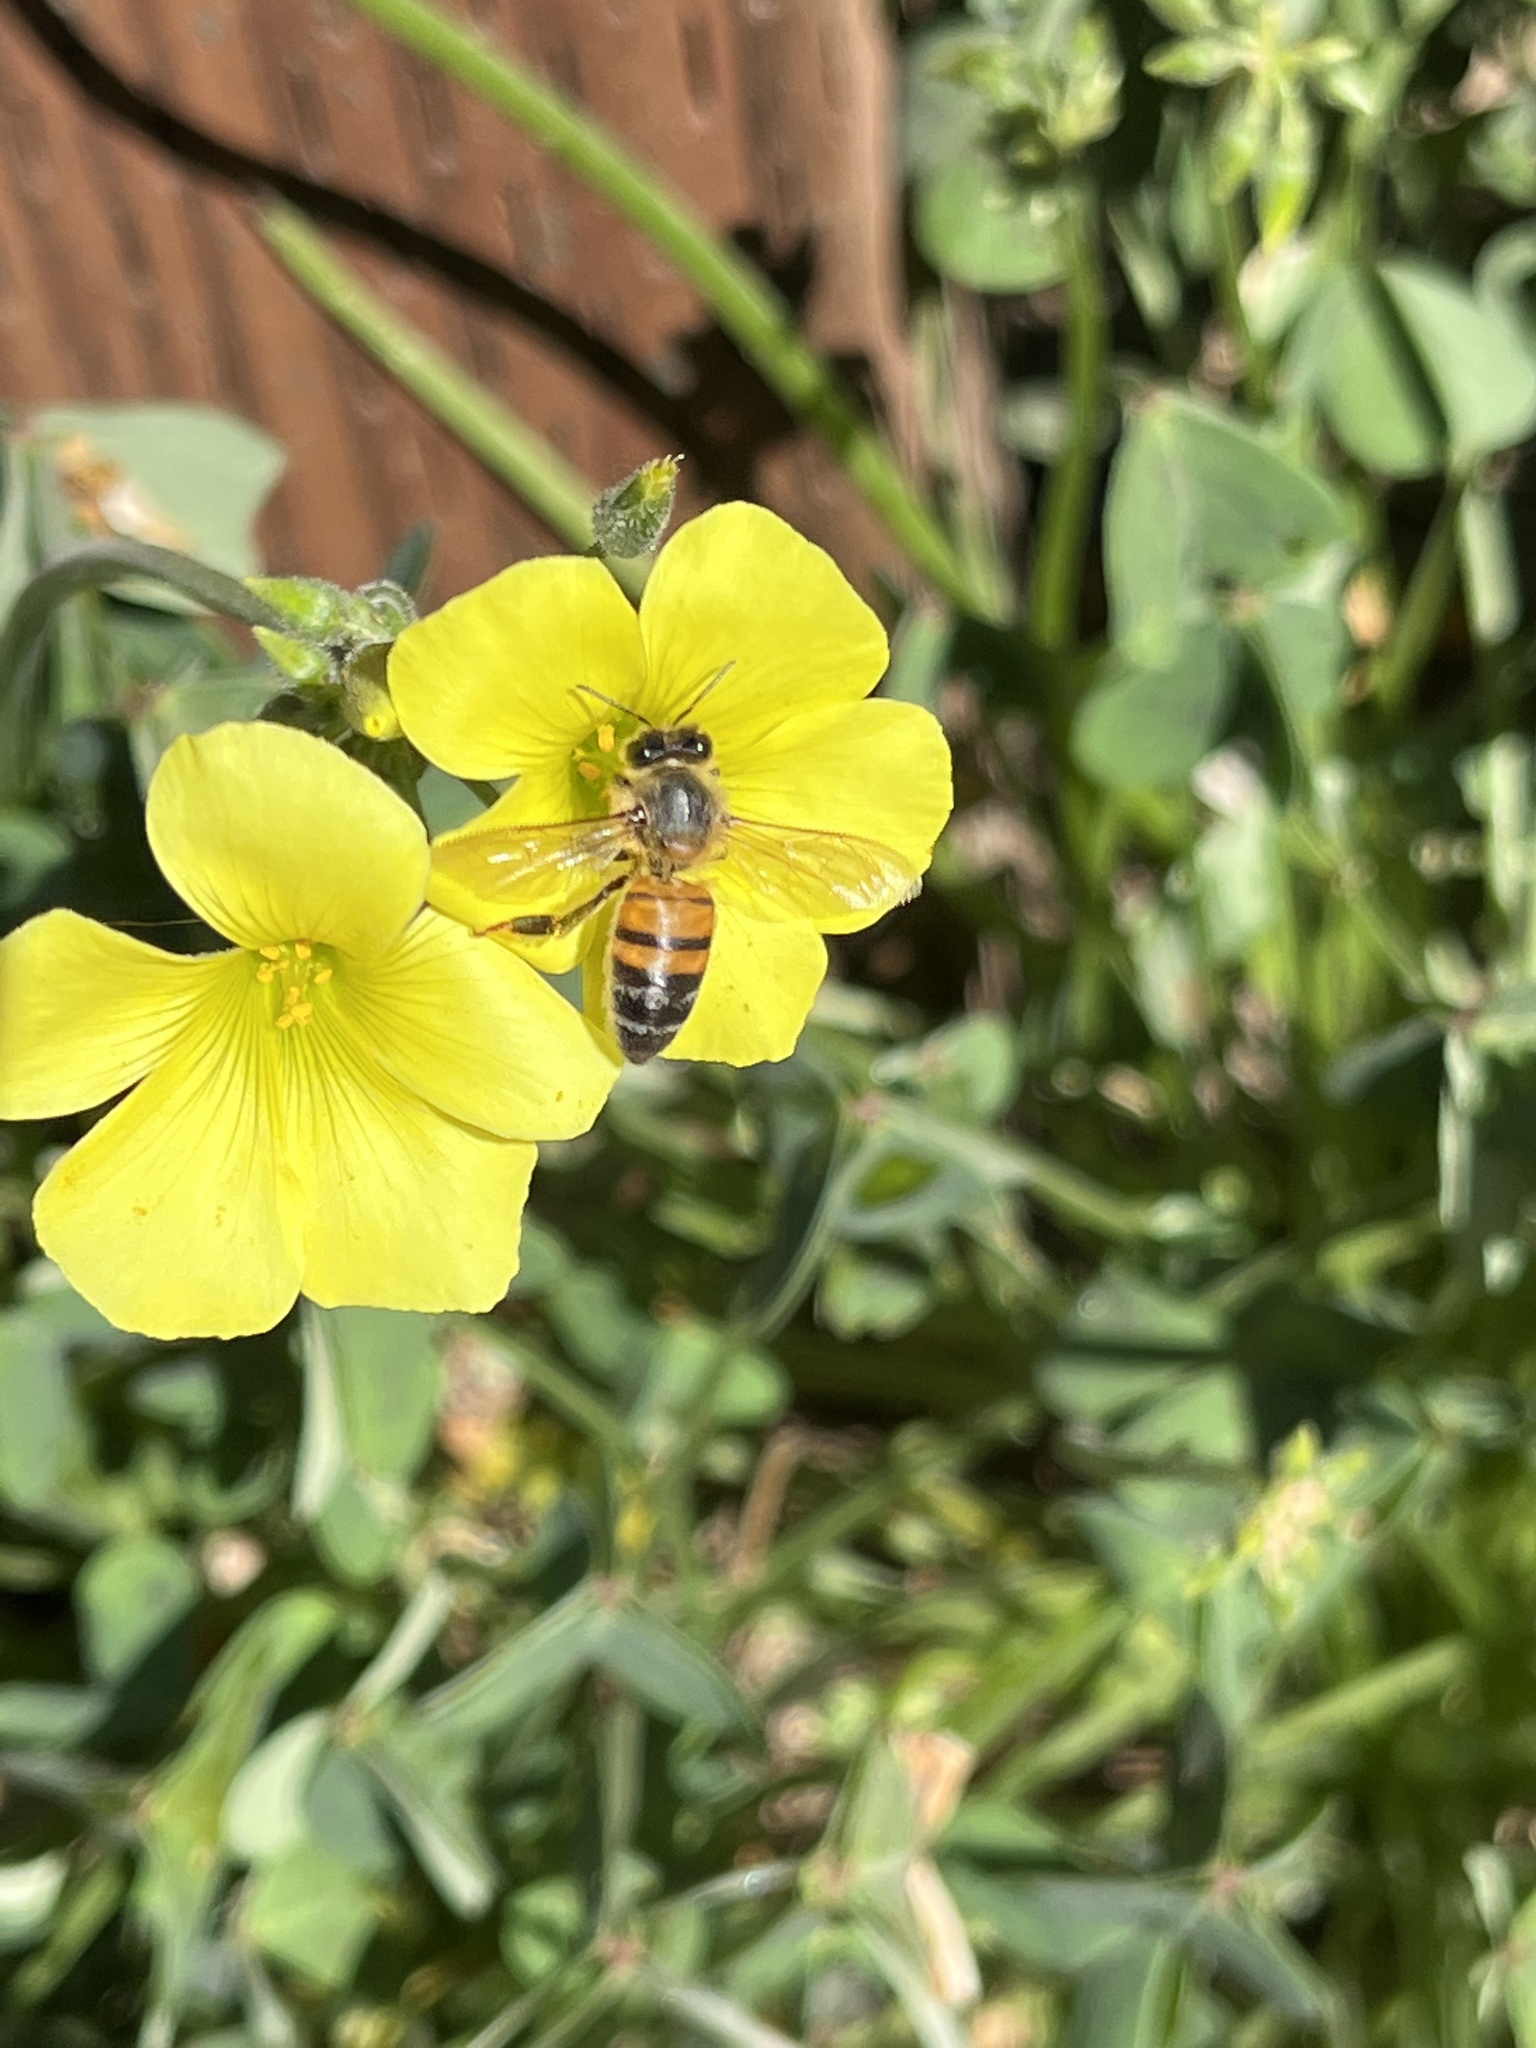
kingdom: Animalia
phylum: Arthropoda
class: Insecta
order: Hymenoptera
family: Apidae
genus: Apis
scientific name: Apis mellifera
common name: Honey bee
